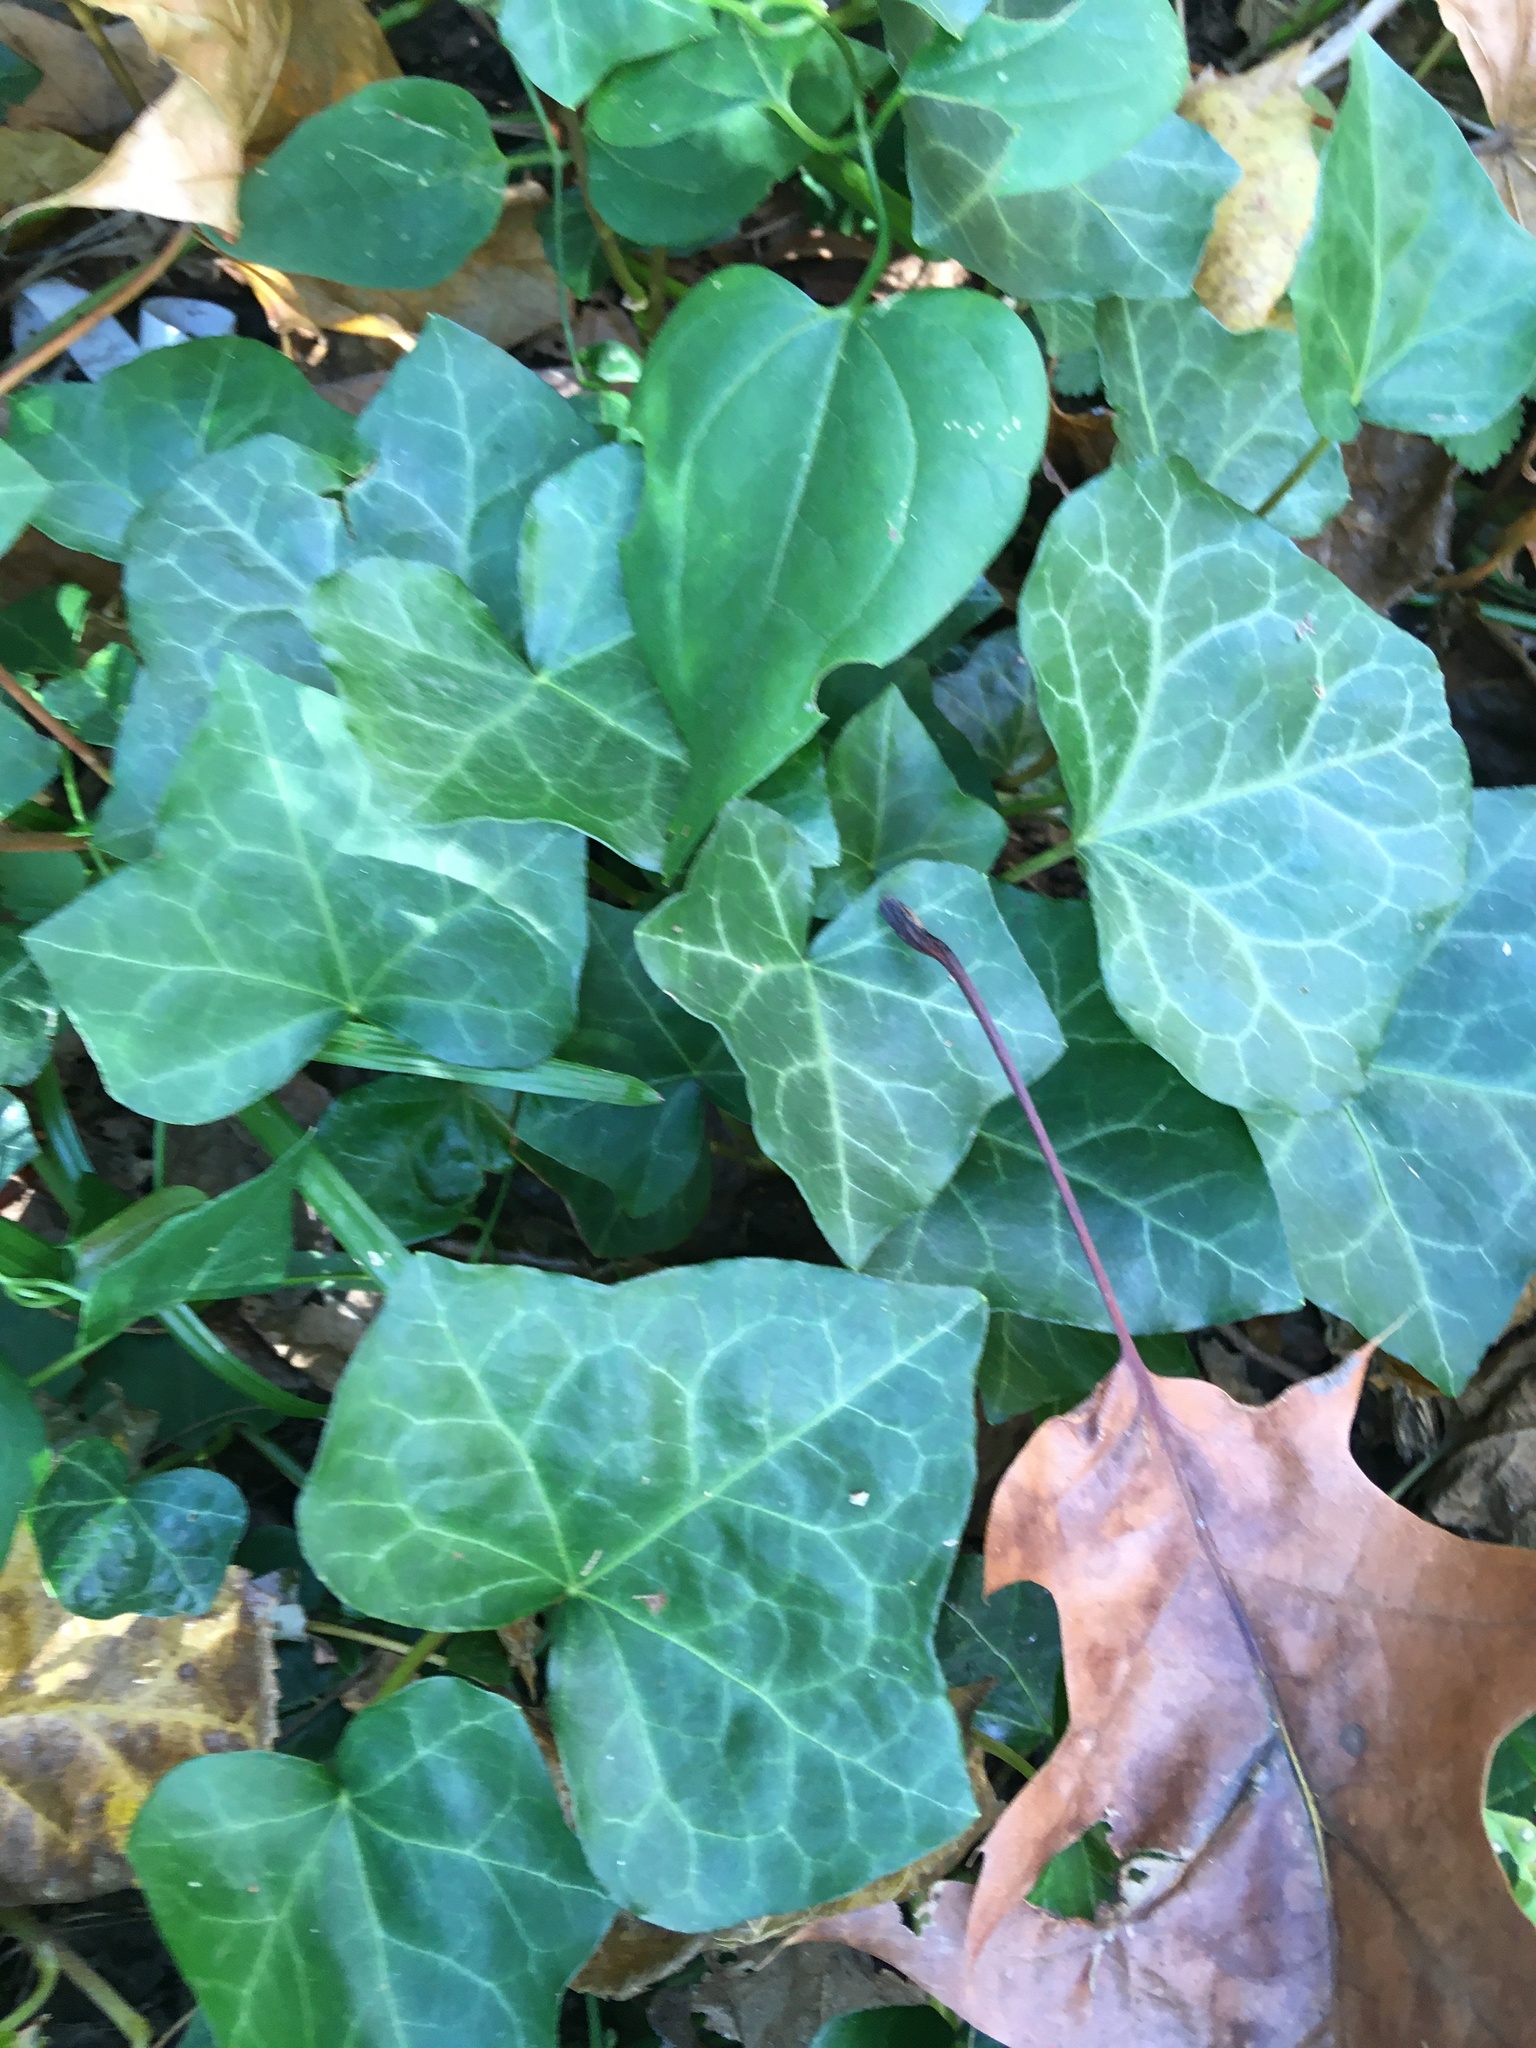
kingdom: Plantae
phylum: Tracheophyta
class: Magnoliopsida
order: Apiales
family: Araliaceae
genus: Hedera
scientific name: Hedera helix
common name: Ivy
